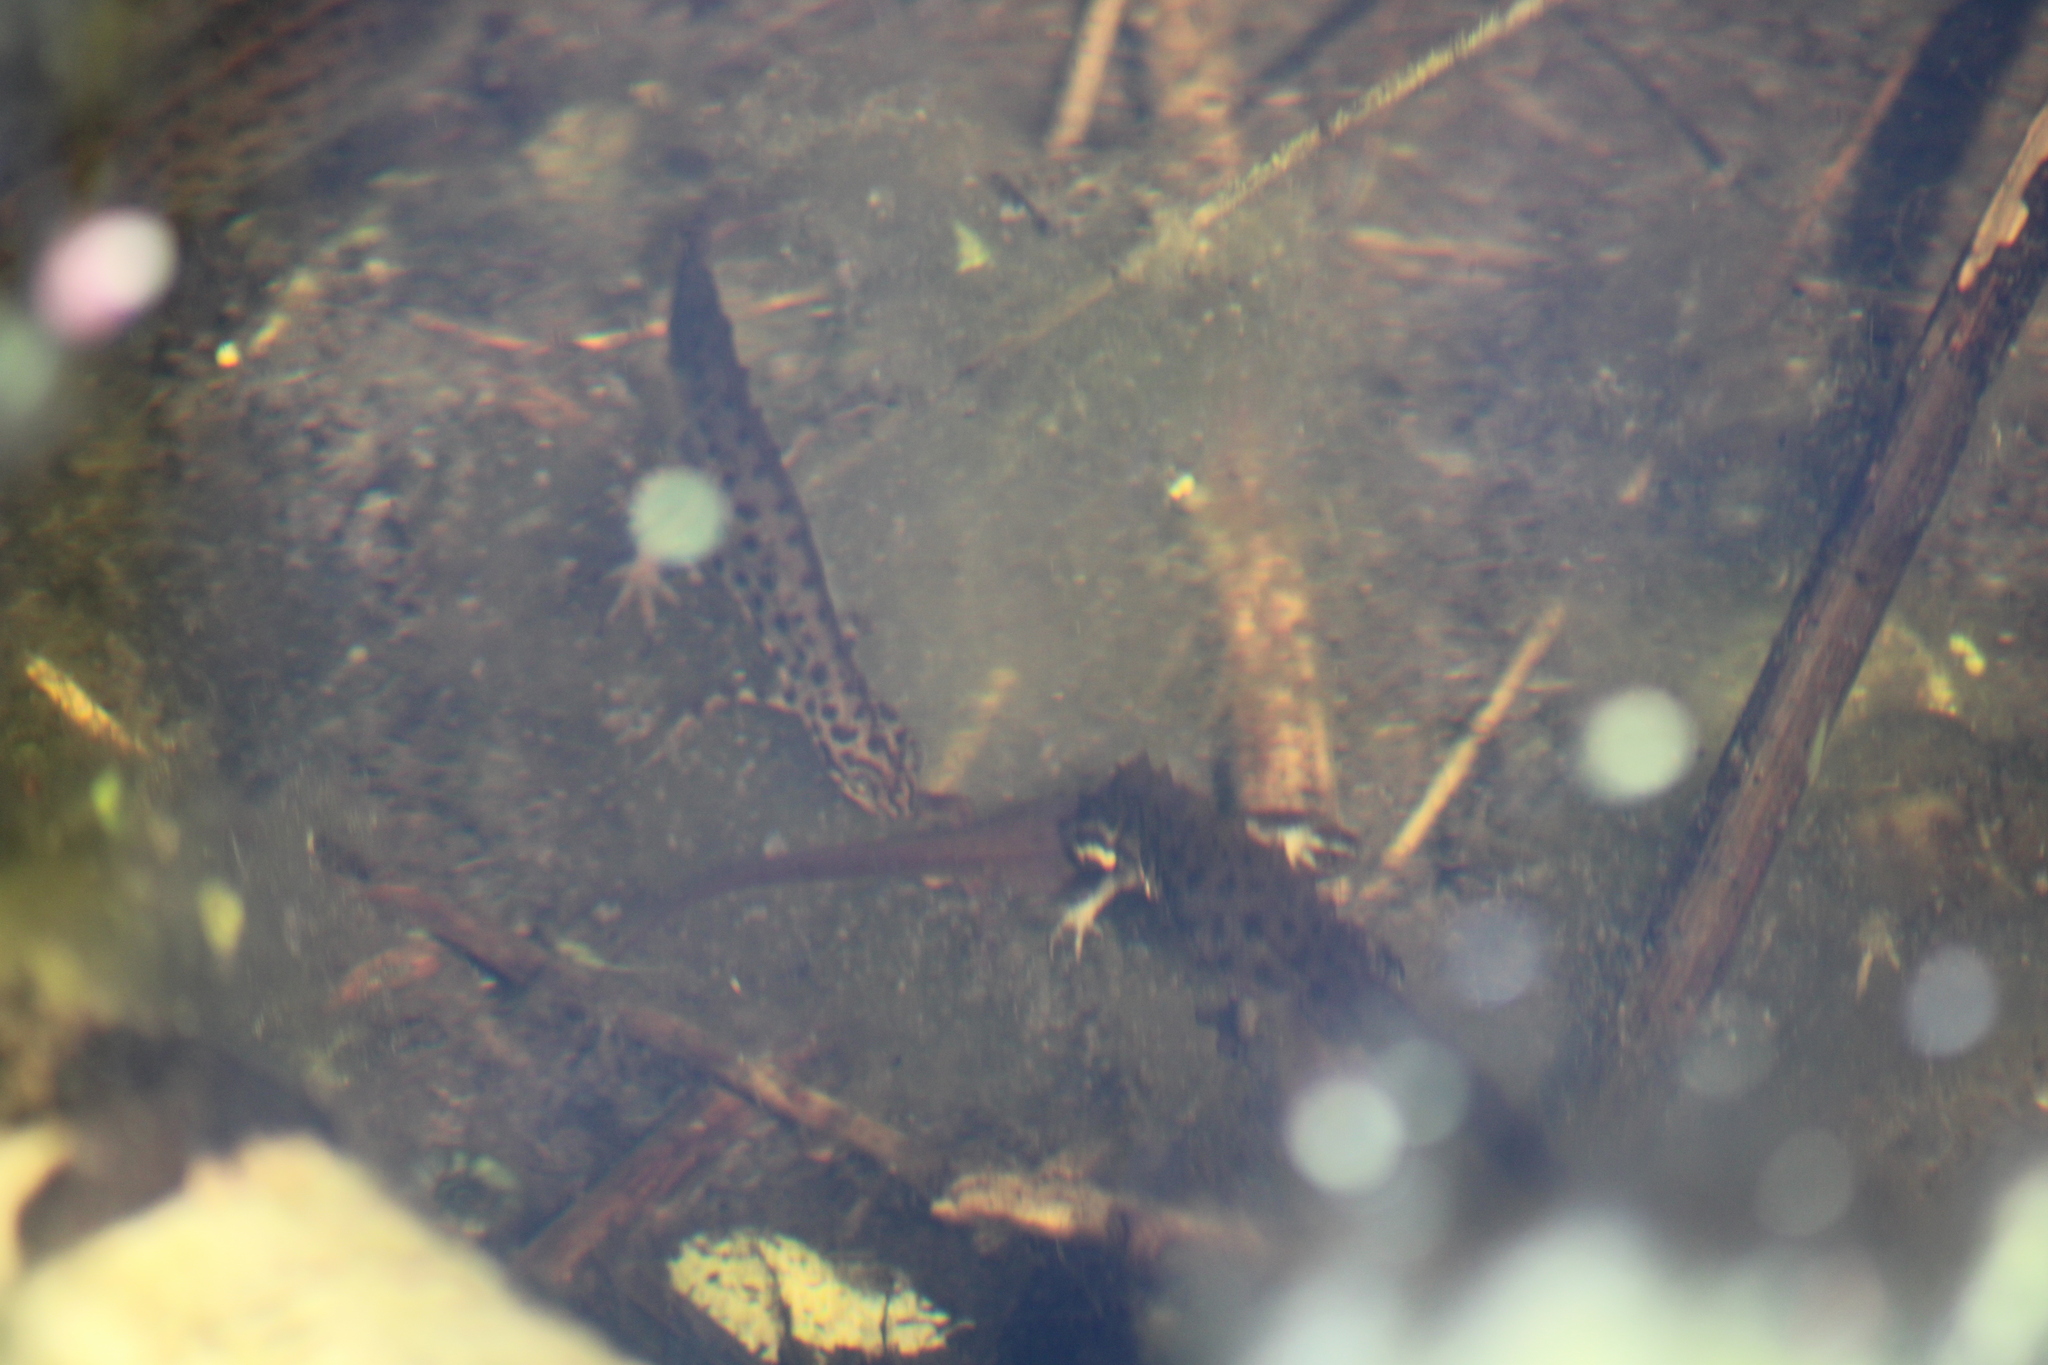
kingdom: Animalia
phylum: Chordata
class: Amphibia
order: Caudata
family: Salamandridae
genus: Lissotriton
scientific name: Lissotriton vulgaris
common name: Smooth newt
